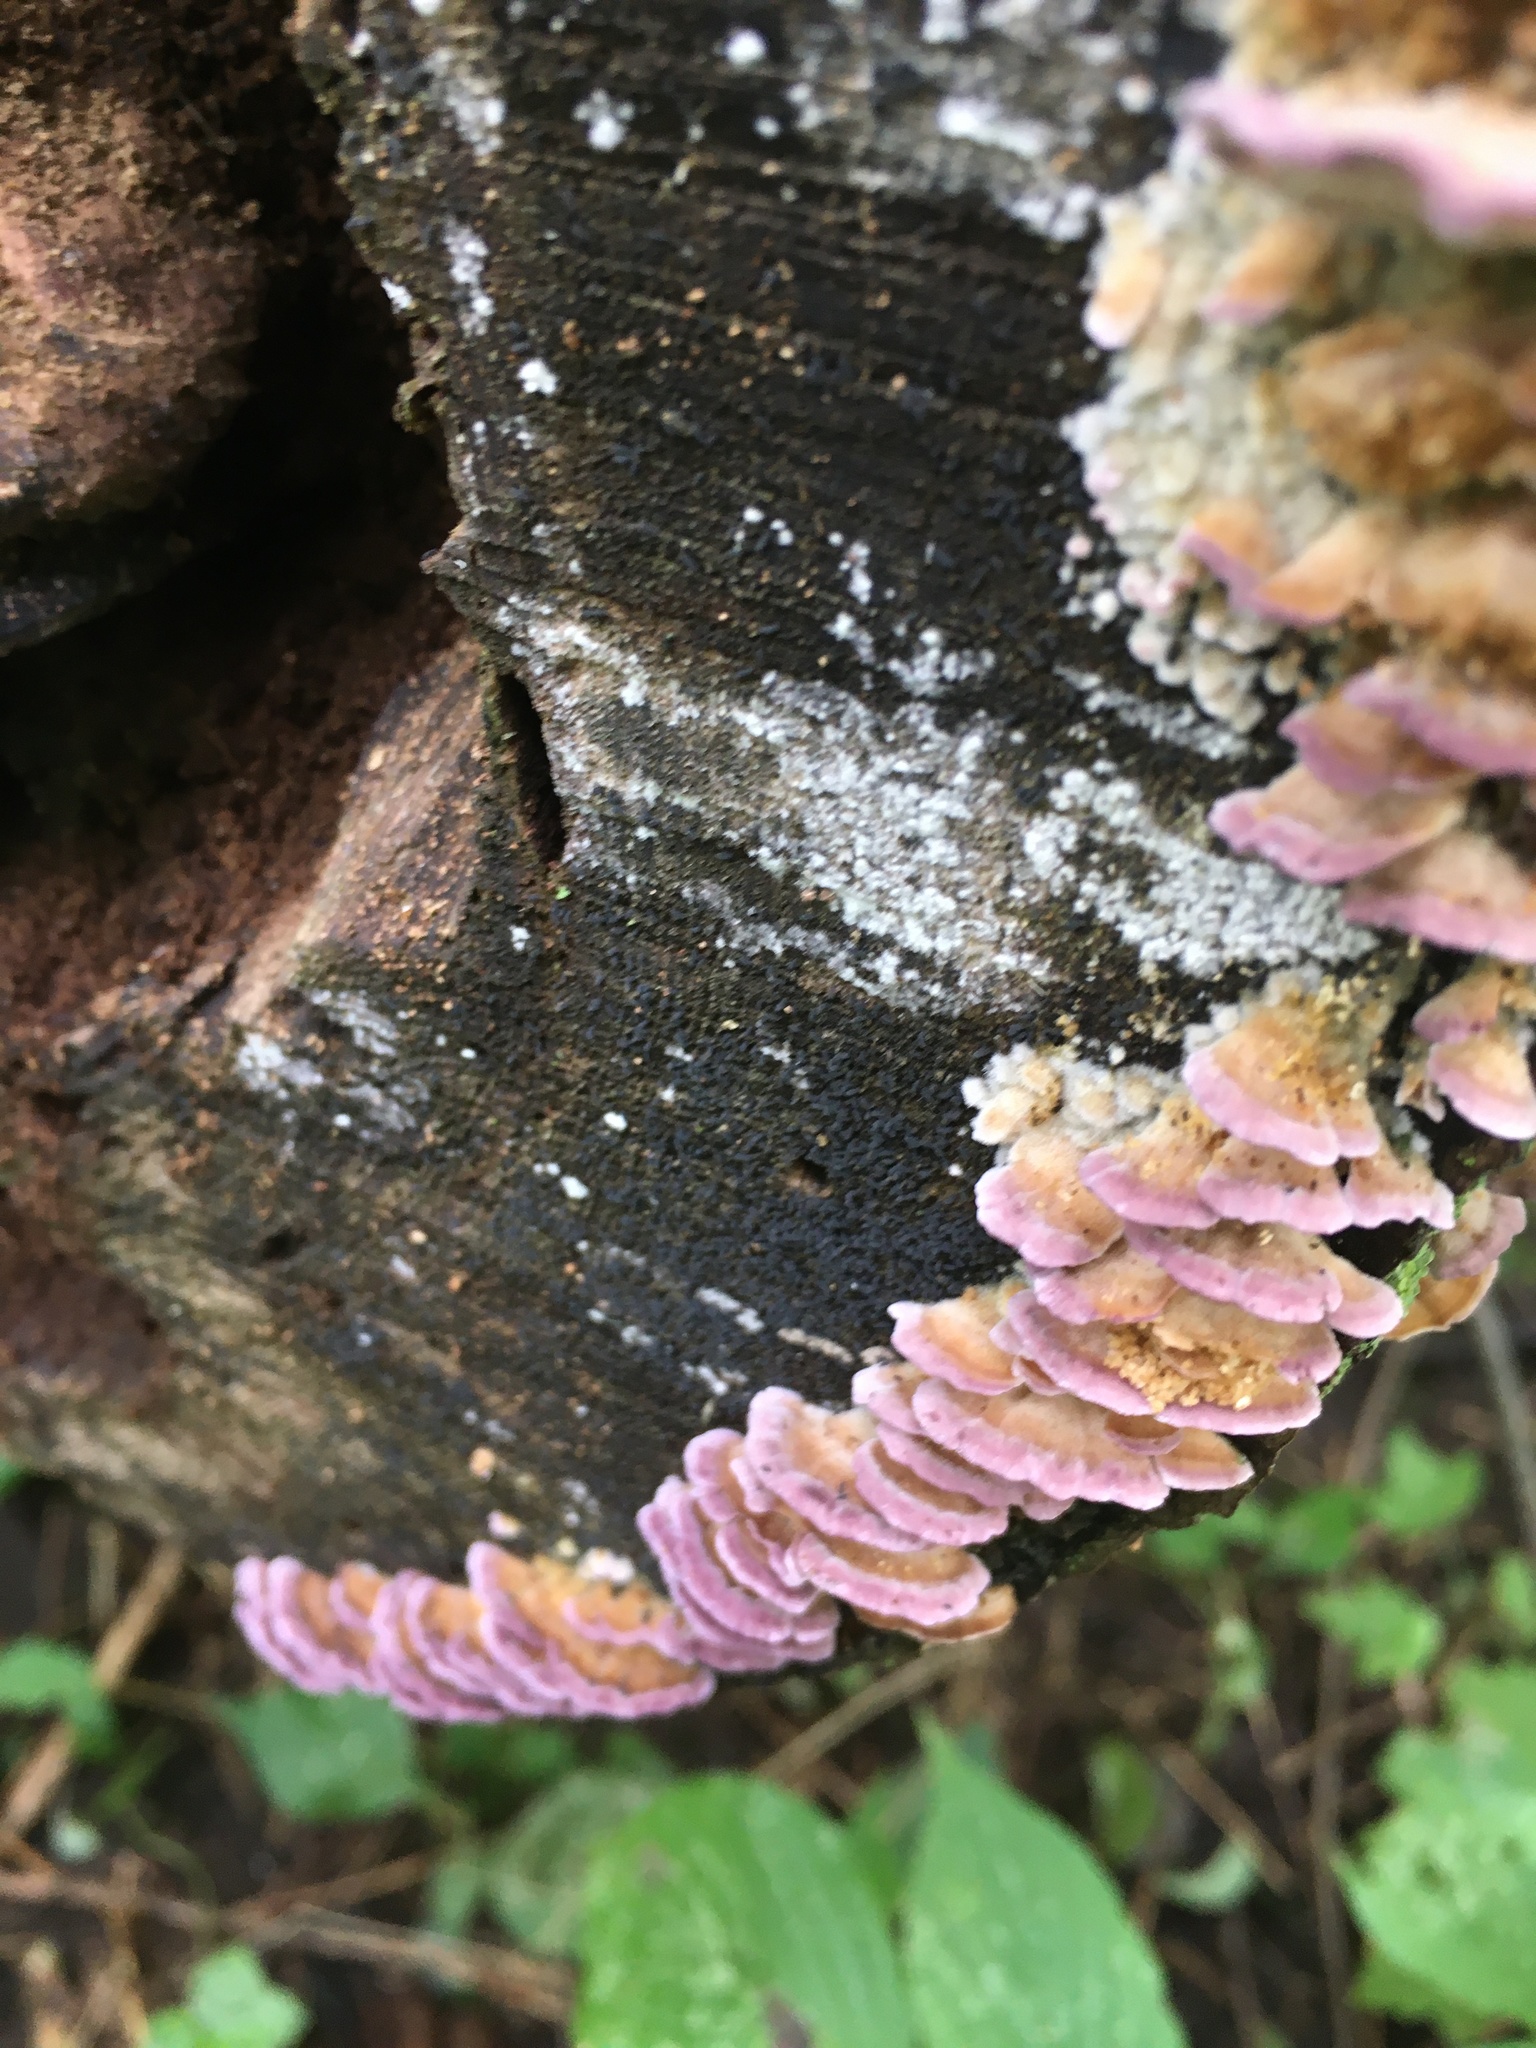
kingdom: Fungi
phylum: Basidiomycota
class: Agaricomycetes
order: Hymenochaetales
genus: Trichaptum
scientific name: Trichaptum biforme
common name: Violet-toothed polypore
